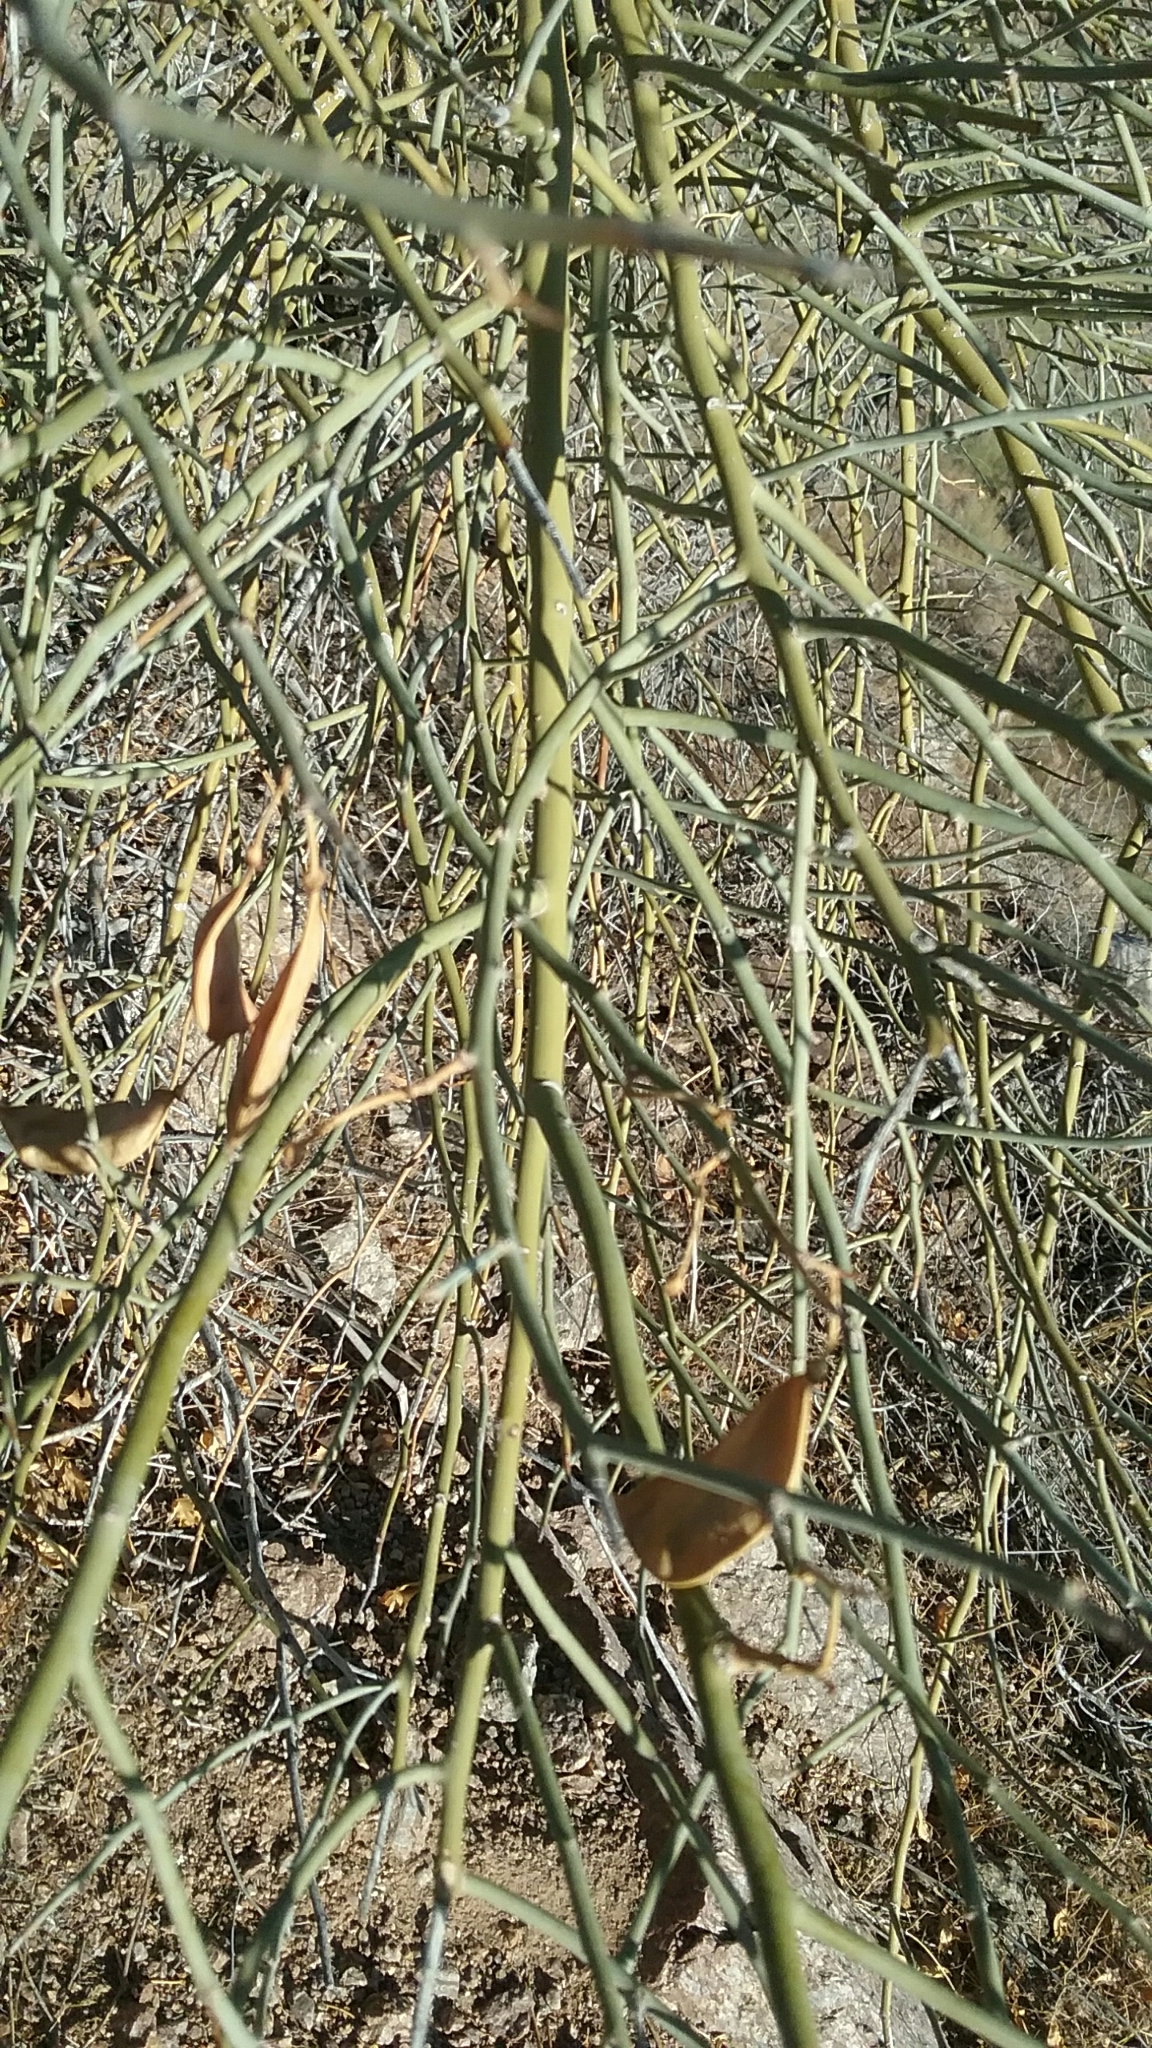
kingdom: Plantae
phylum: Tracheophyta
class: Magnoliopsida
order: Fabales
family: Fabaceae
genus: Parkinsonia
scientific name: Parkinsonia florida
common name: Blue paloverde
